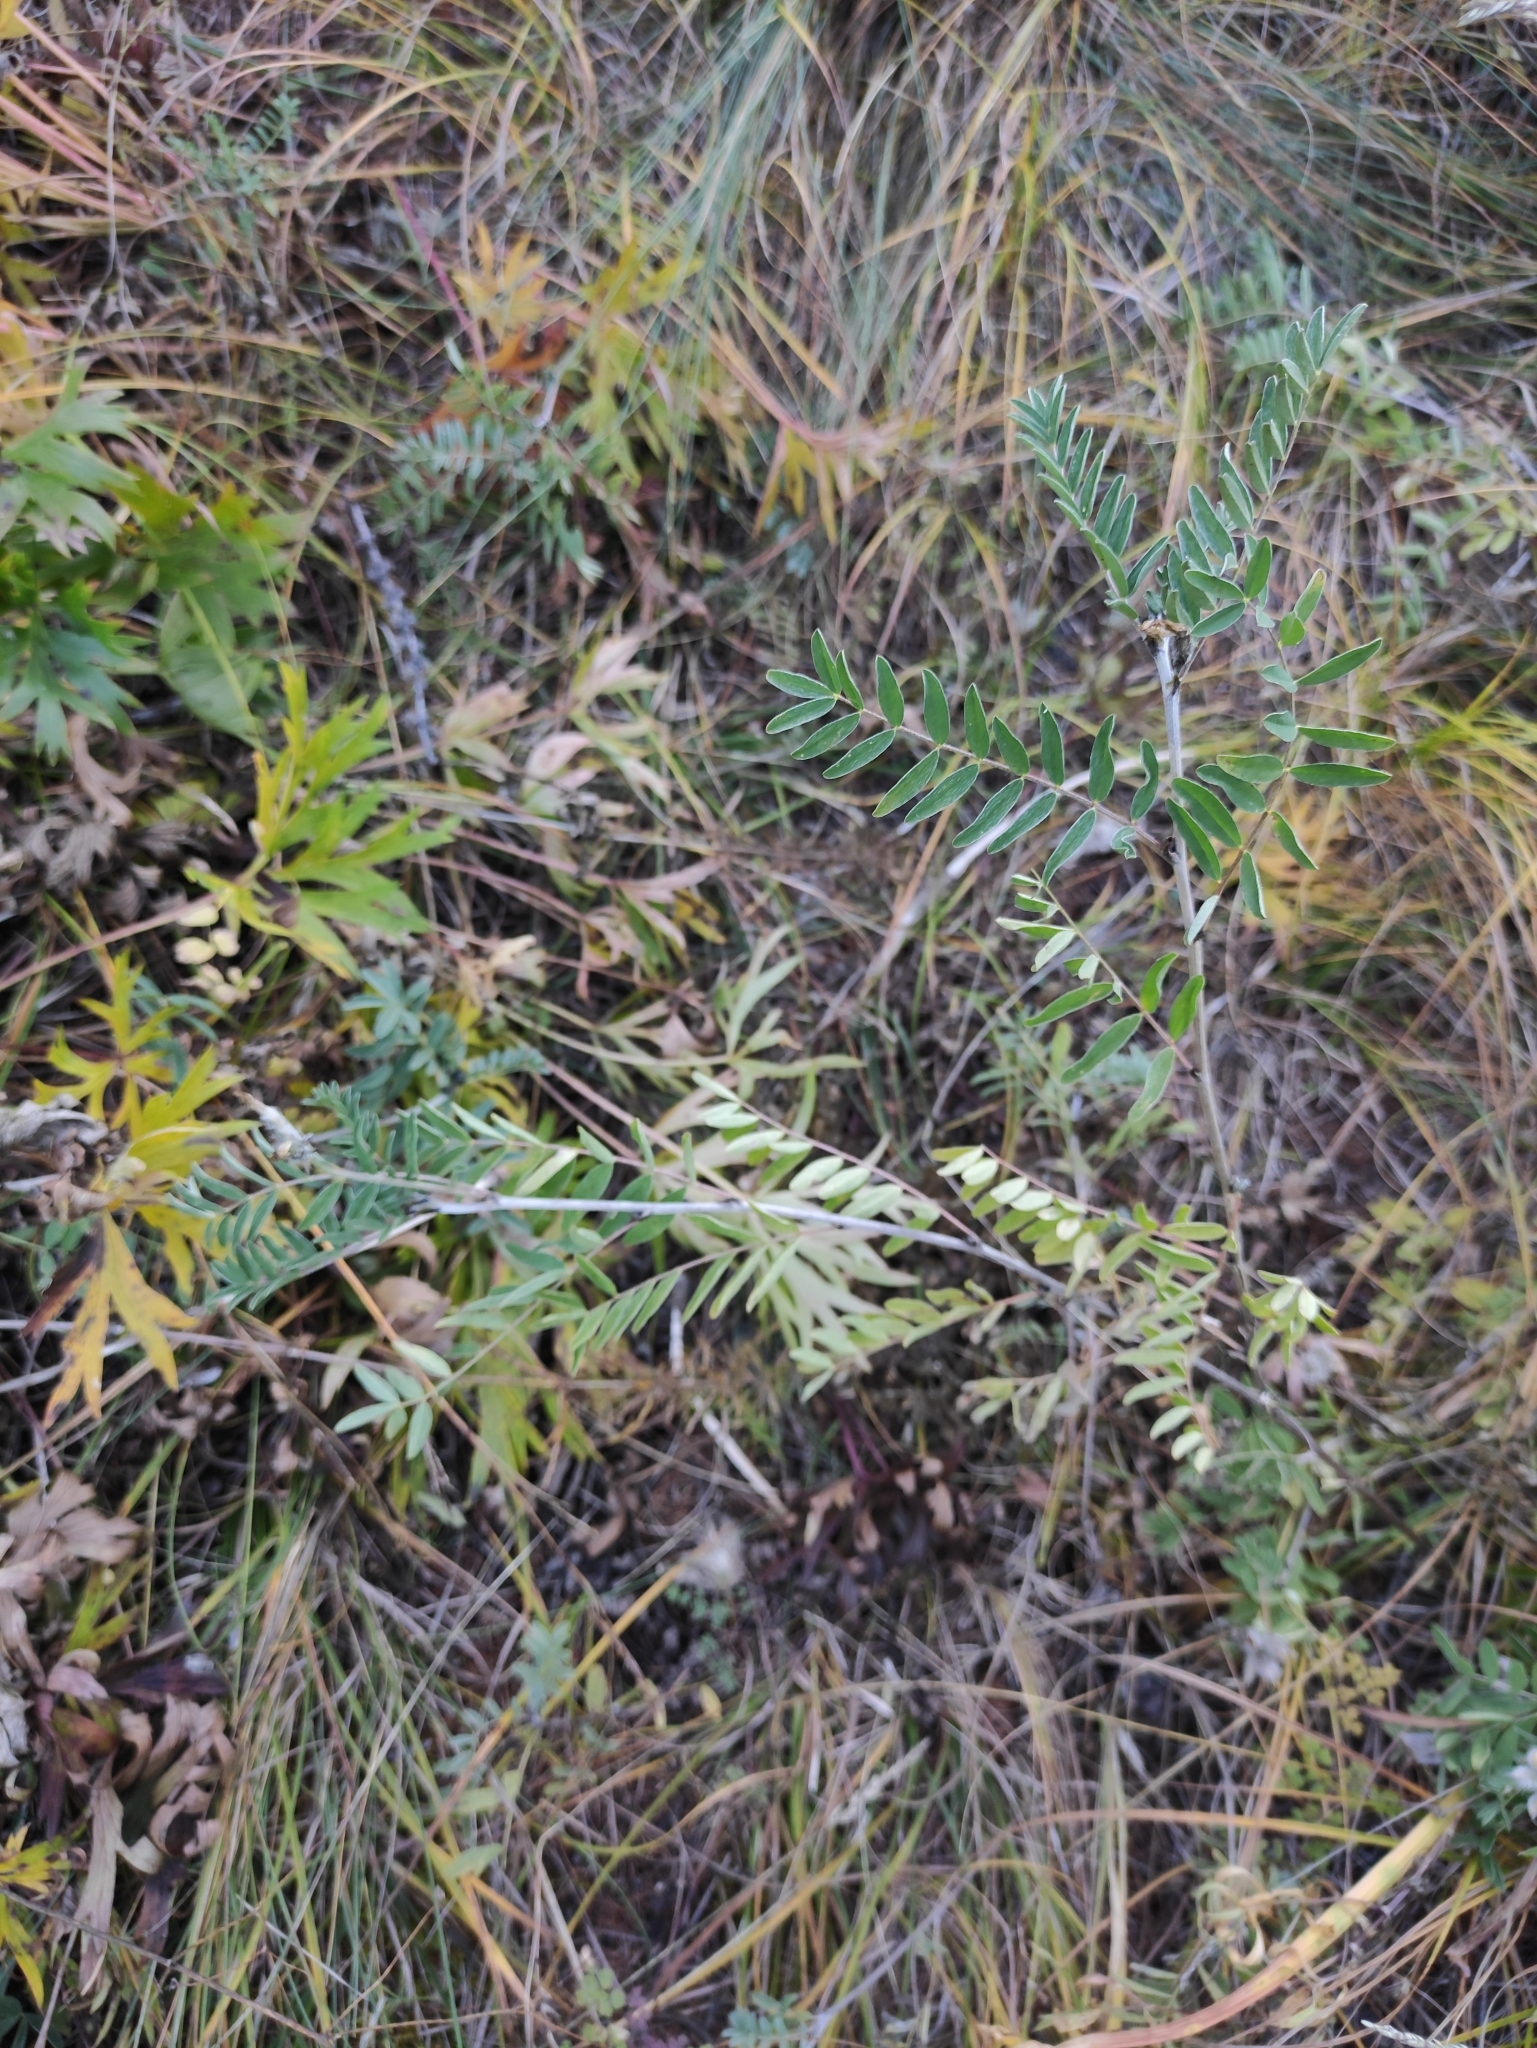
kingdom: Plantae
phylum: Tracheophyta
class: Magnoliopsida
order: Fabales
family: Fabaceae
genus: Astragalus
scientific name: Astragalus syriacus
